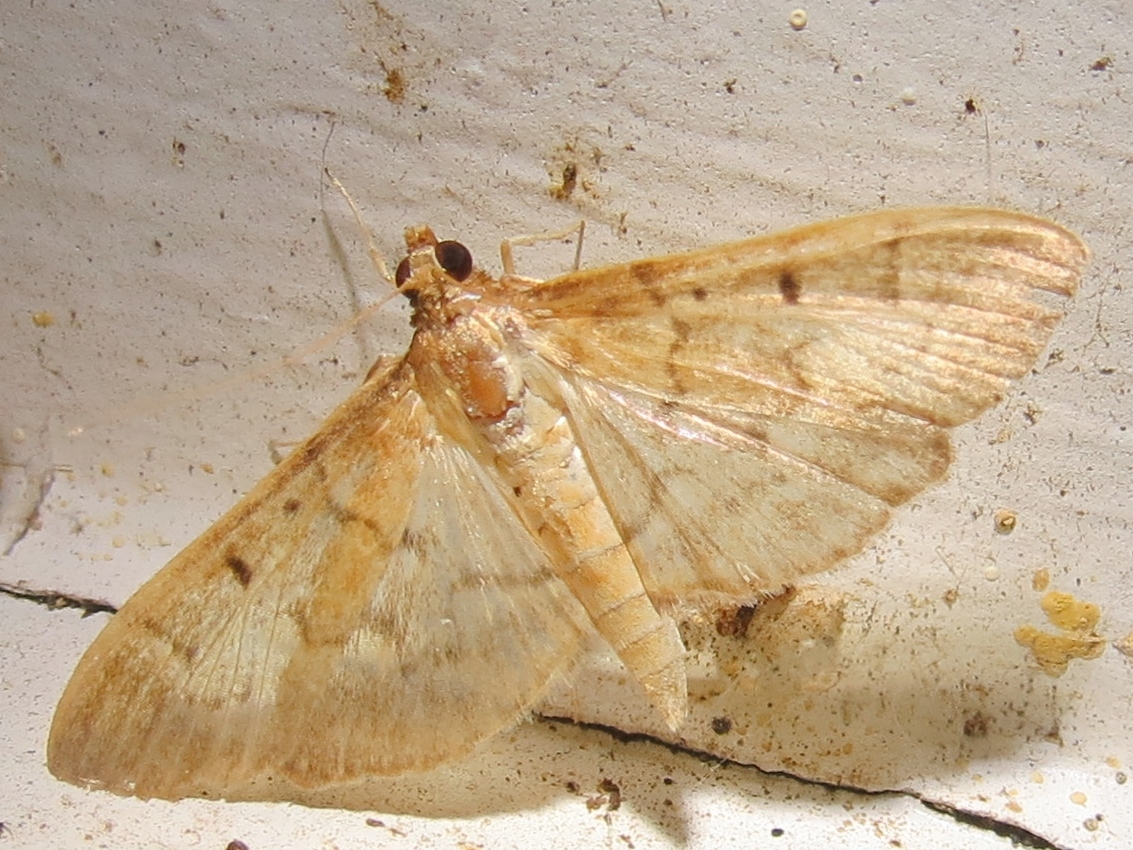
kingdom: Animalia
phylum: Arthropoda
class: Insecta
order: Lepidoptera
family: Crambidae
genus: Herpetogramma
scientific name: Herpetogramma bipunctalis
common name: Southern beet webworm
